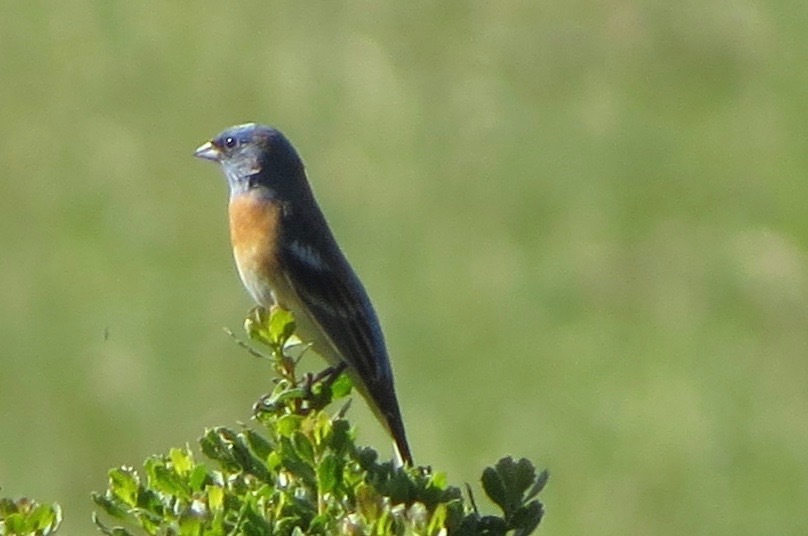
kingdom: Animalia
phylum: Chordata
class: Aves
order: Passeriformes
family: Cardinalidae
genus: Passerina
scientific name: Passerina amoena
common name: Lazuli bunting
